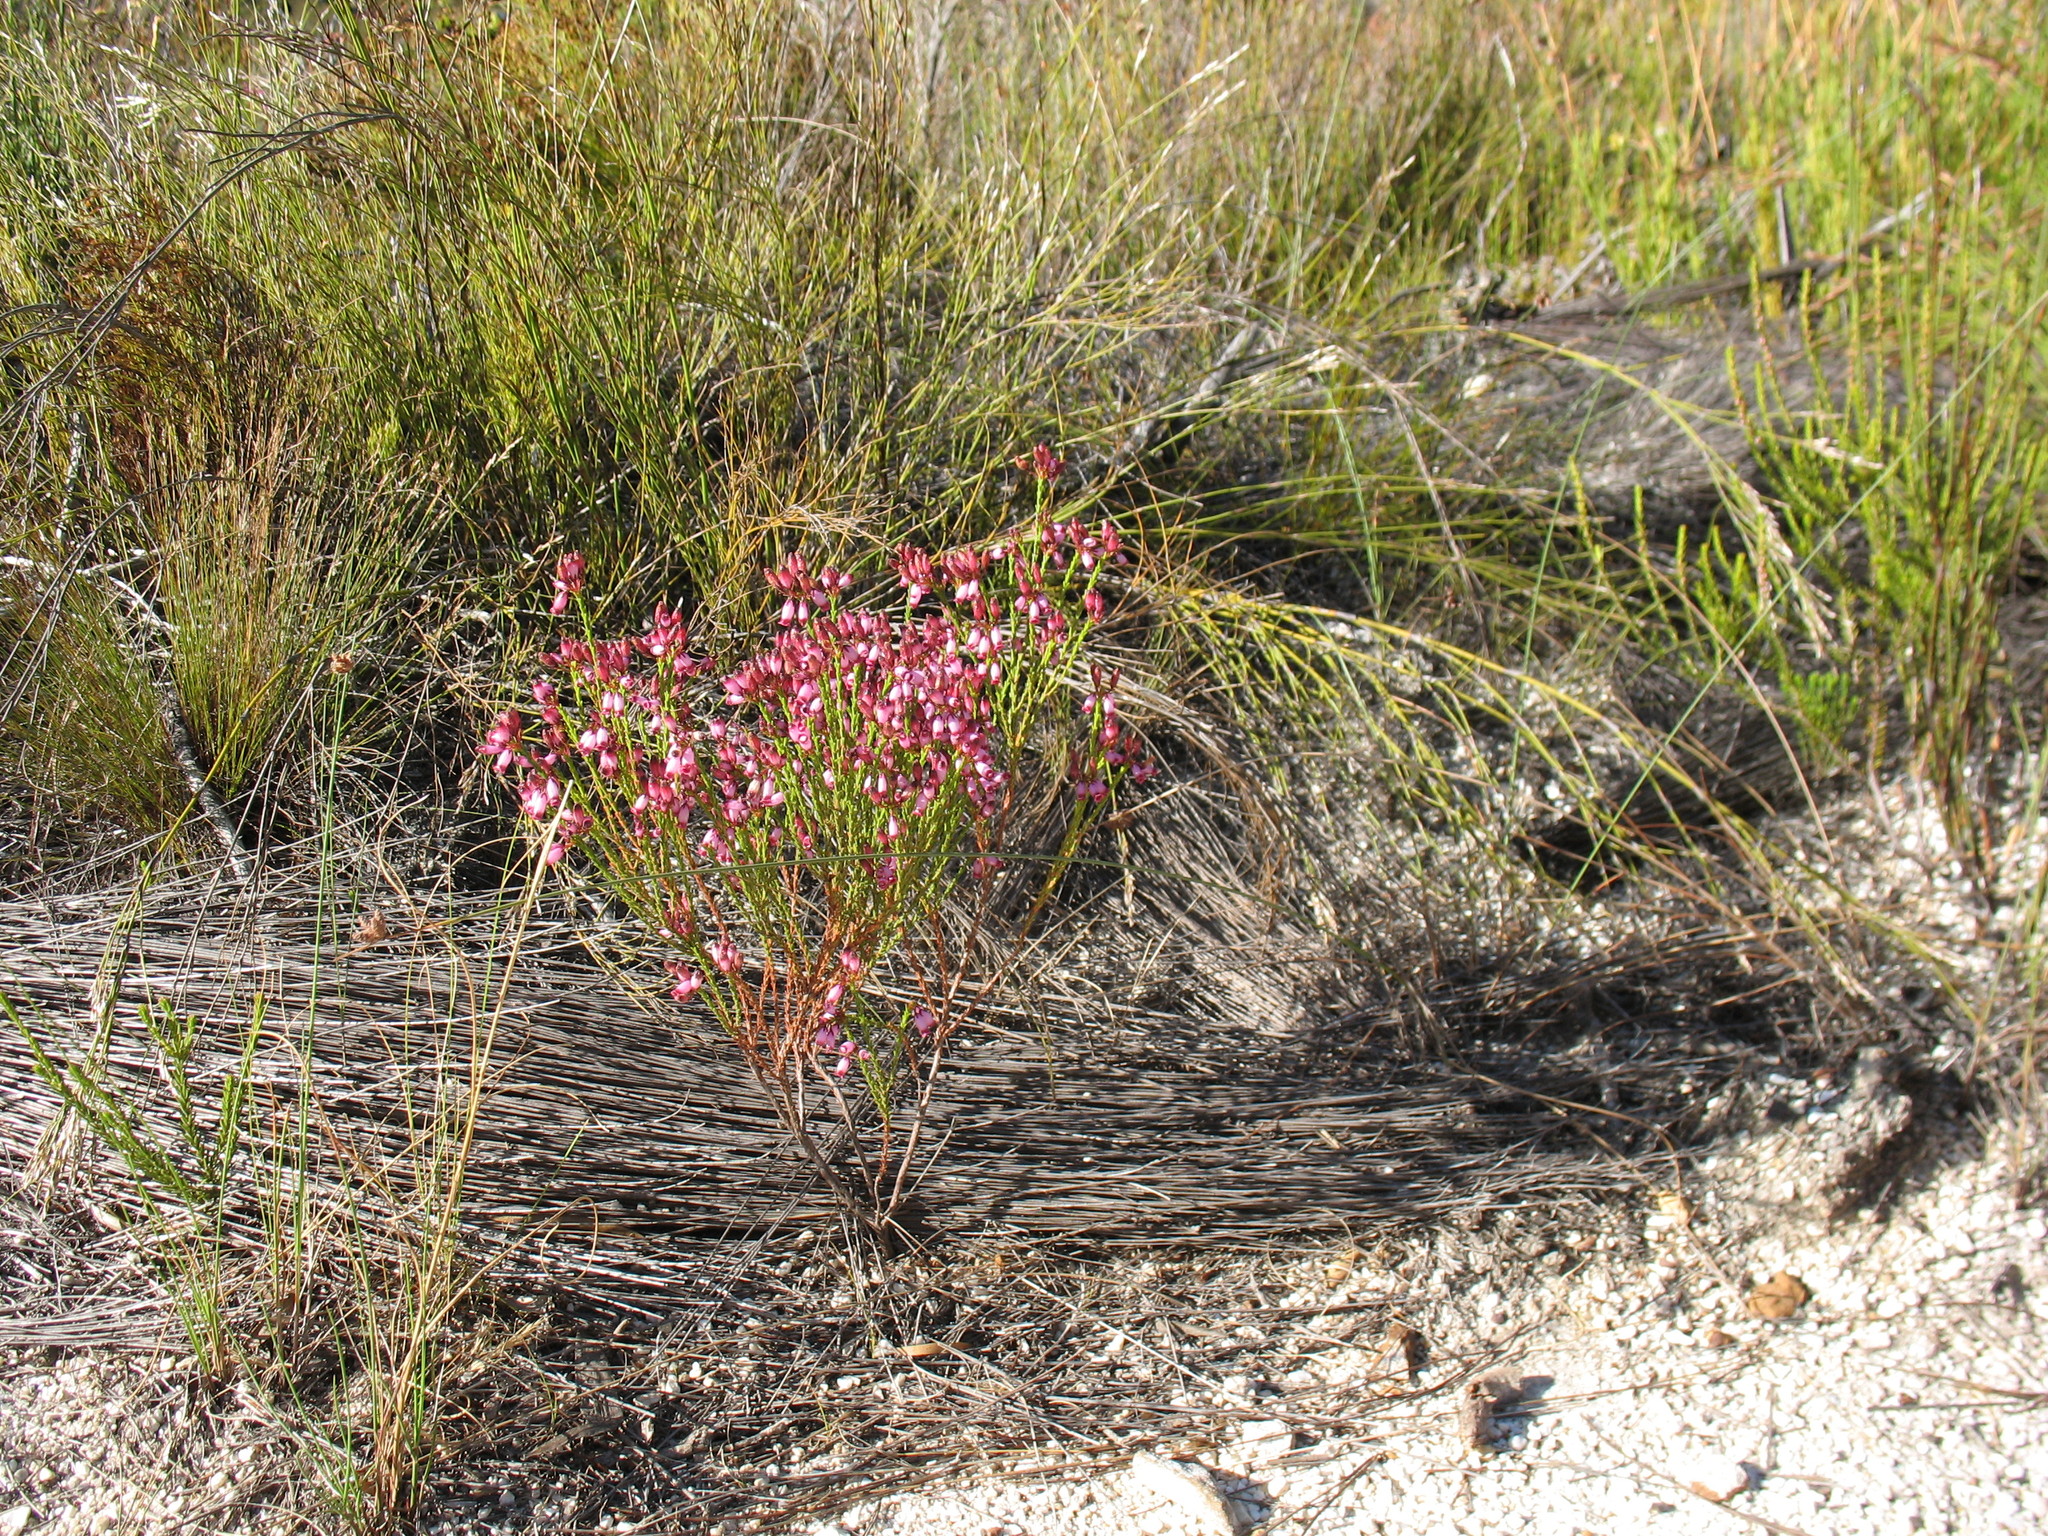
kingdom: Plantae
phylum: Tracheophyta
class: Magnoliopsida
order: Ericales
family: Ericaceae
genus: Erica
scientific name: Erica cristata
